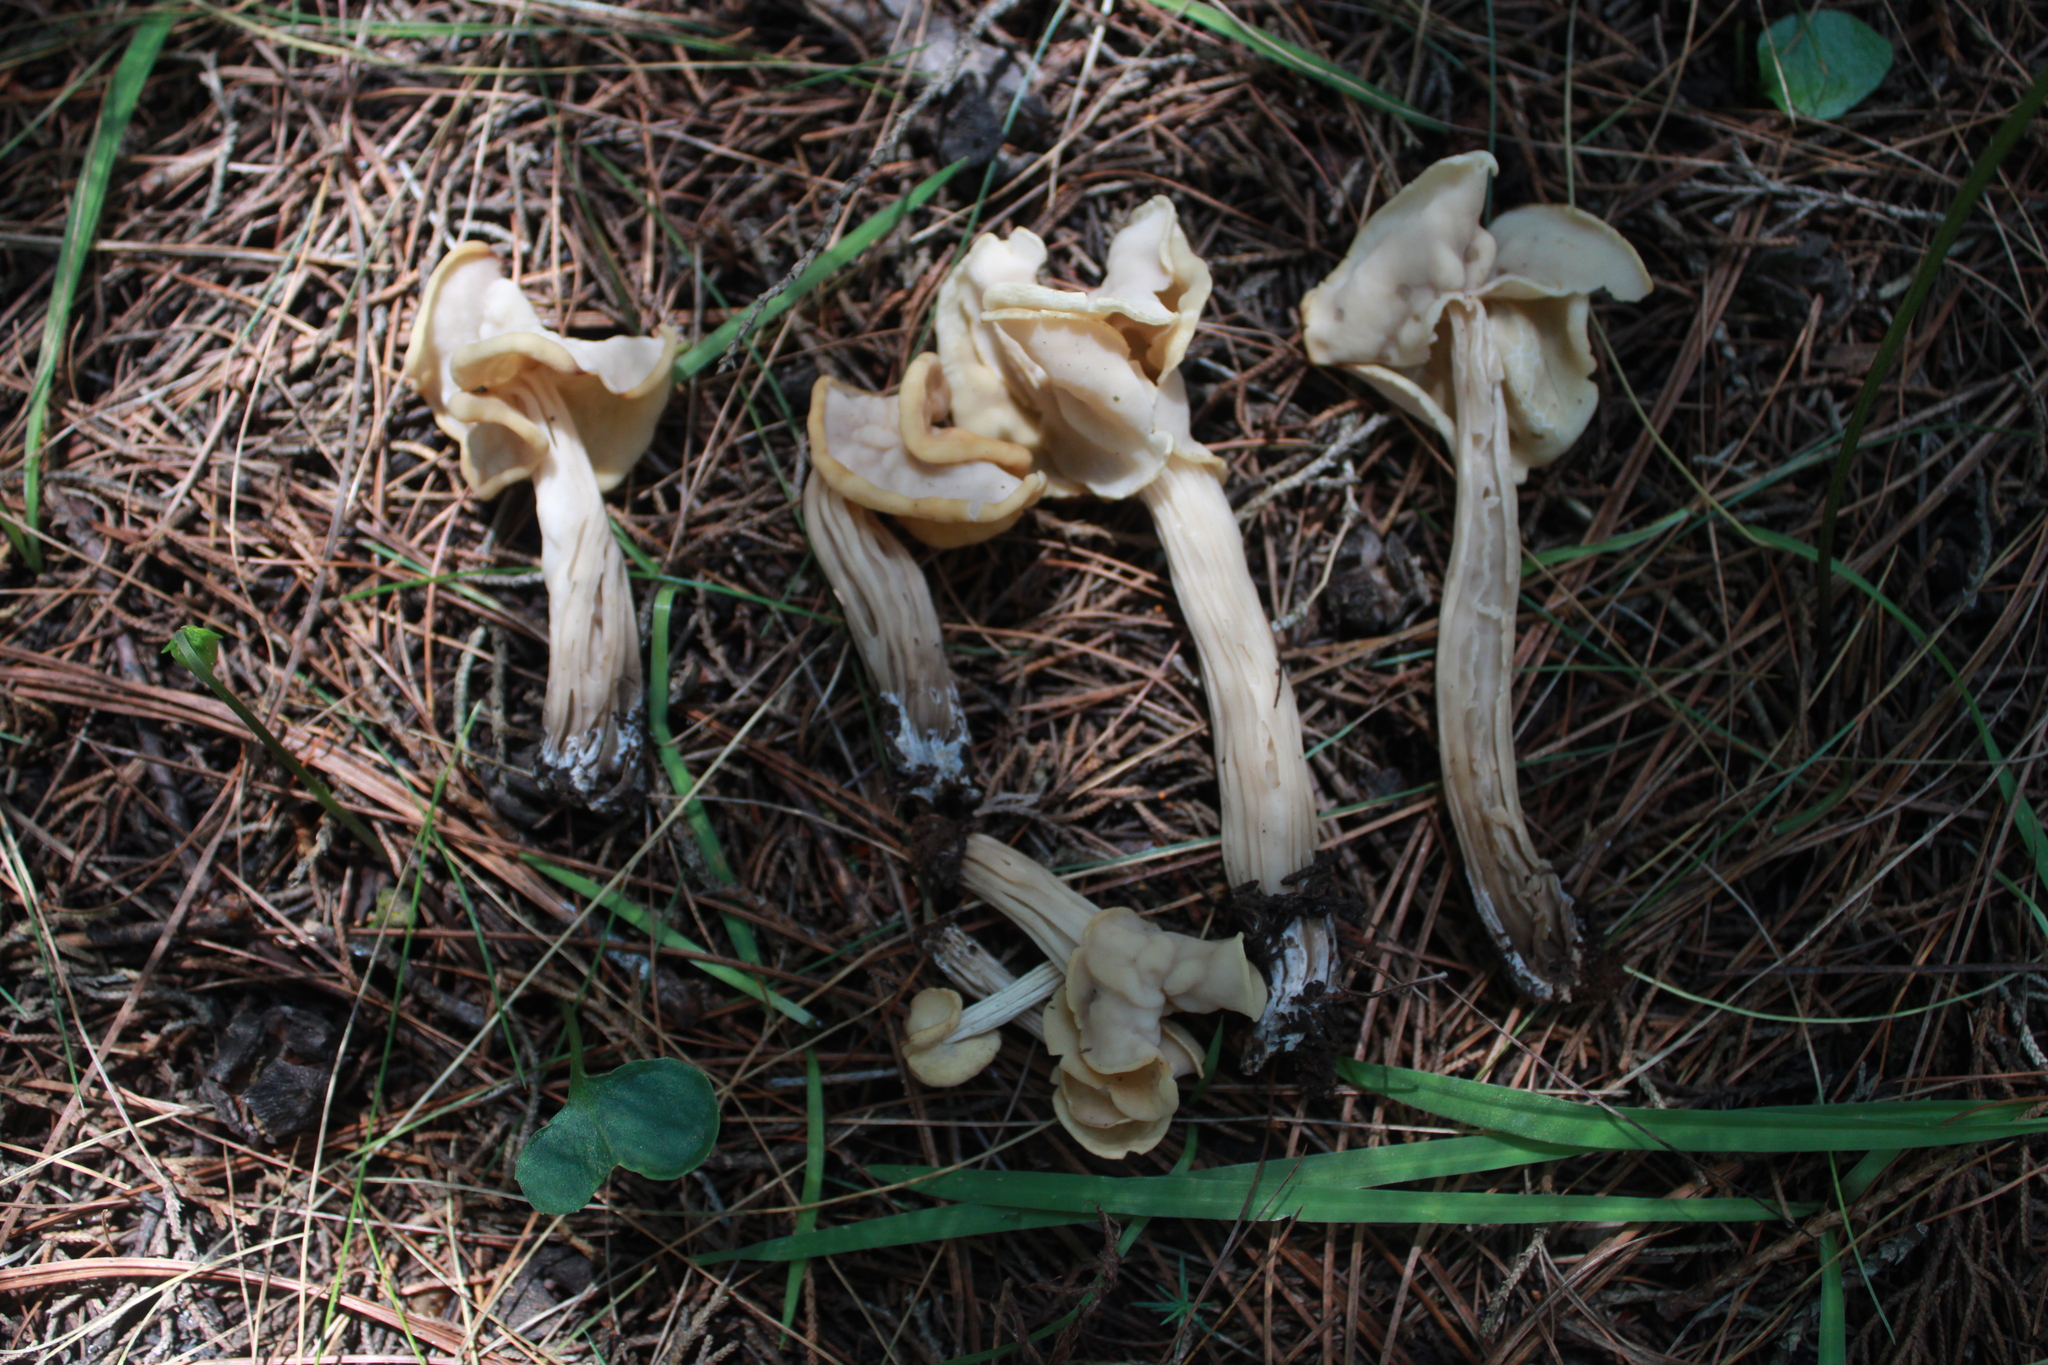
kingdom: Fungi
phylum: Ascomycota
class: Pezizomycetes
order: Pezizales
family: Helvellaceae
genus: Helvella
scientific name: Helvella crispa
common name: White saddle
